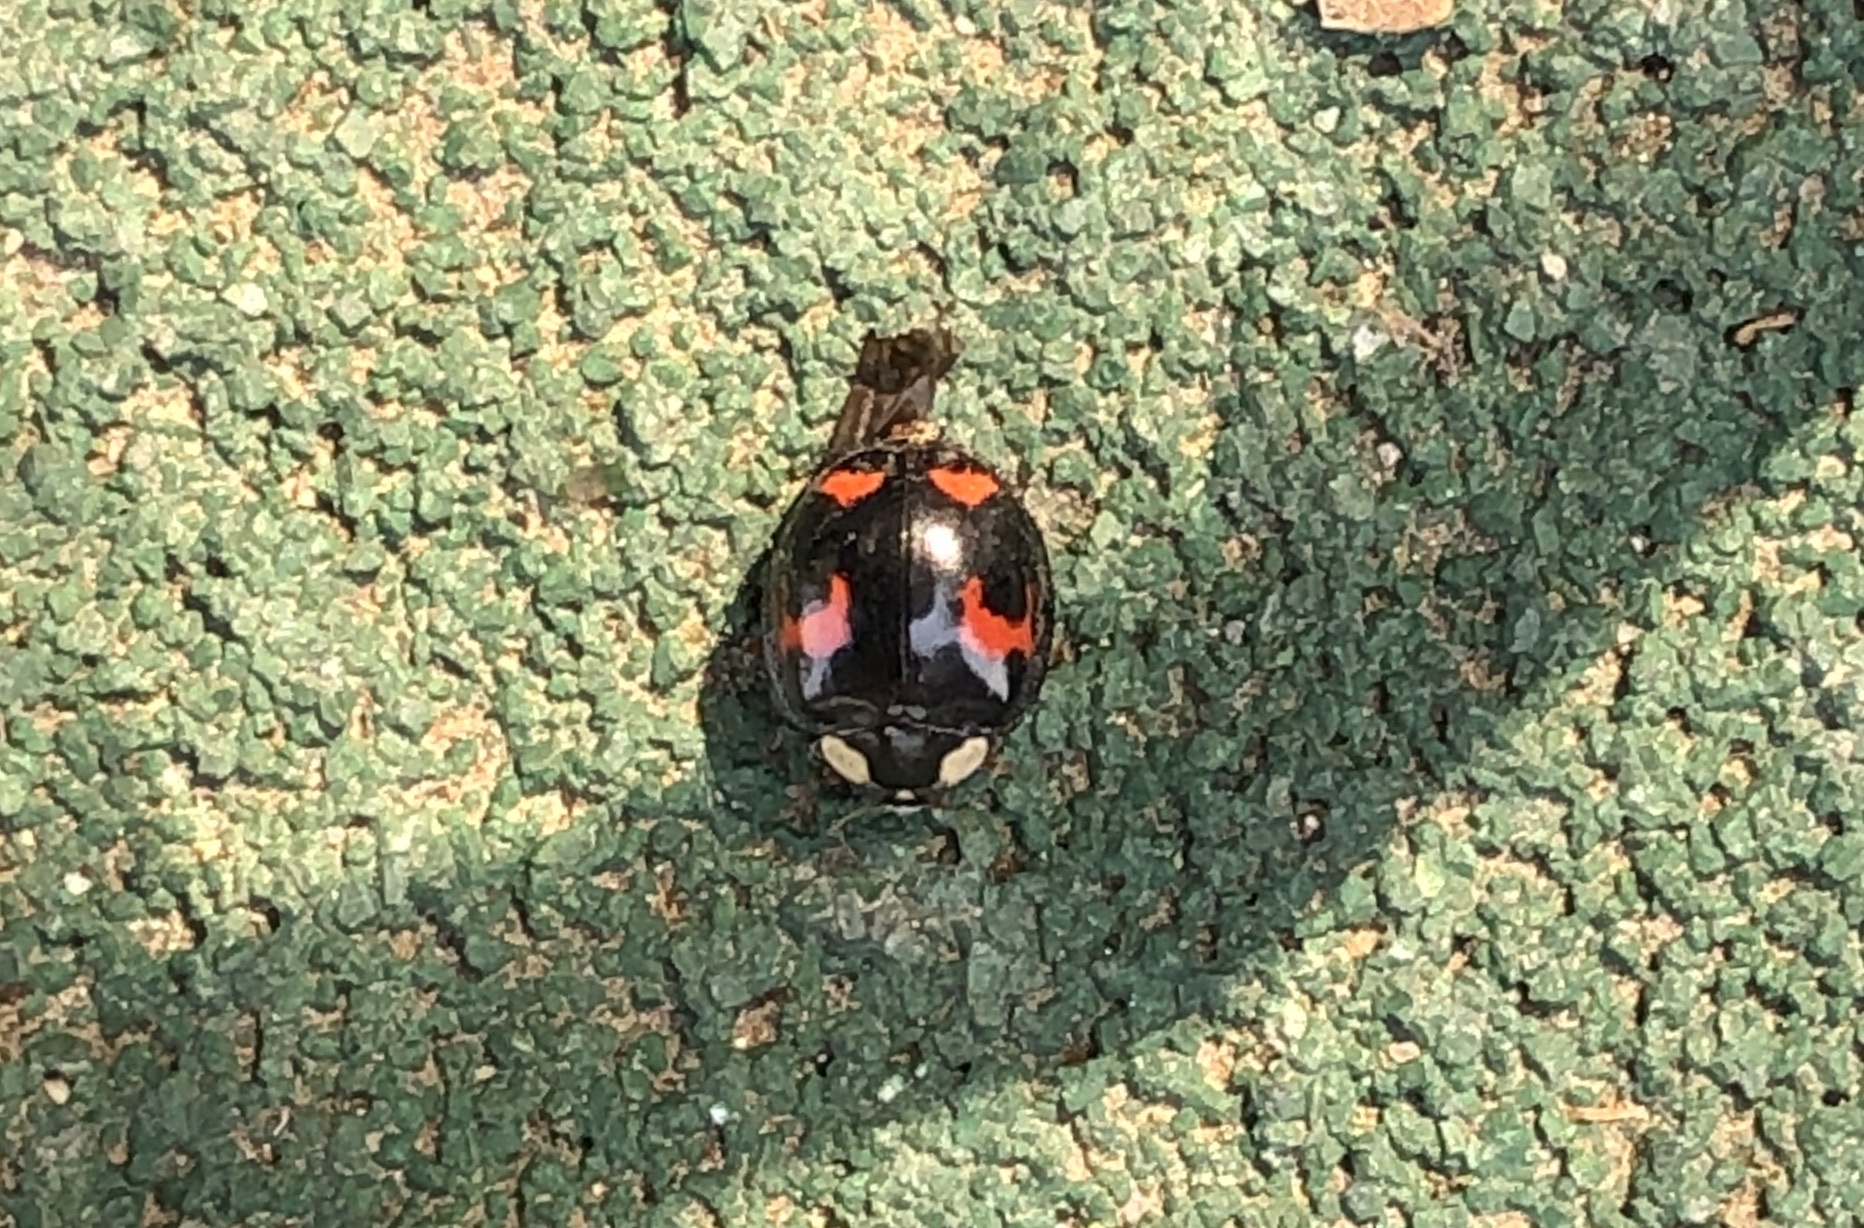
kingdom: Animalia
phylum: Arthropoda
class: Insecta
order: Coleoptera
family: Coccinellidae
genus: Harmonia
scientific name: Harmonia axyridis
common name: Harlequin ladybird
